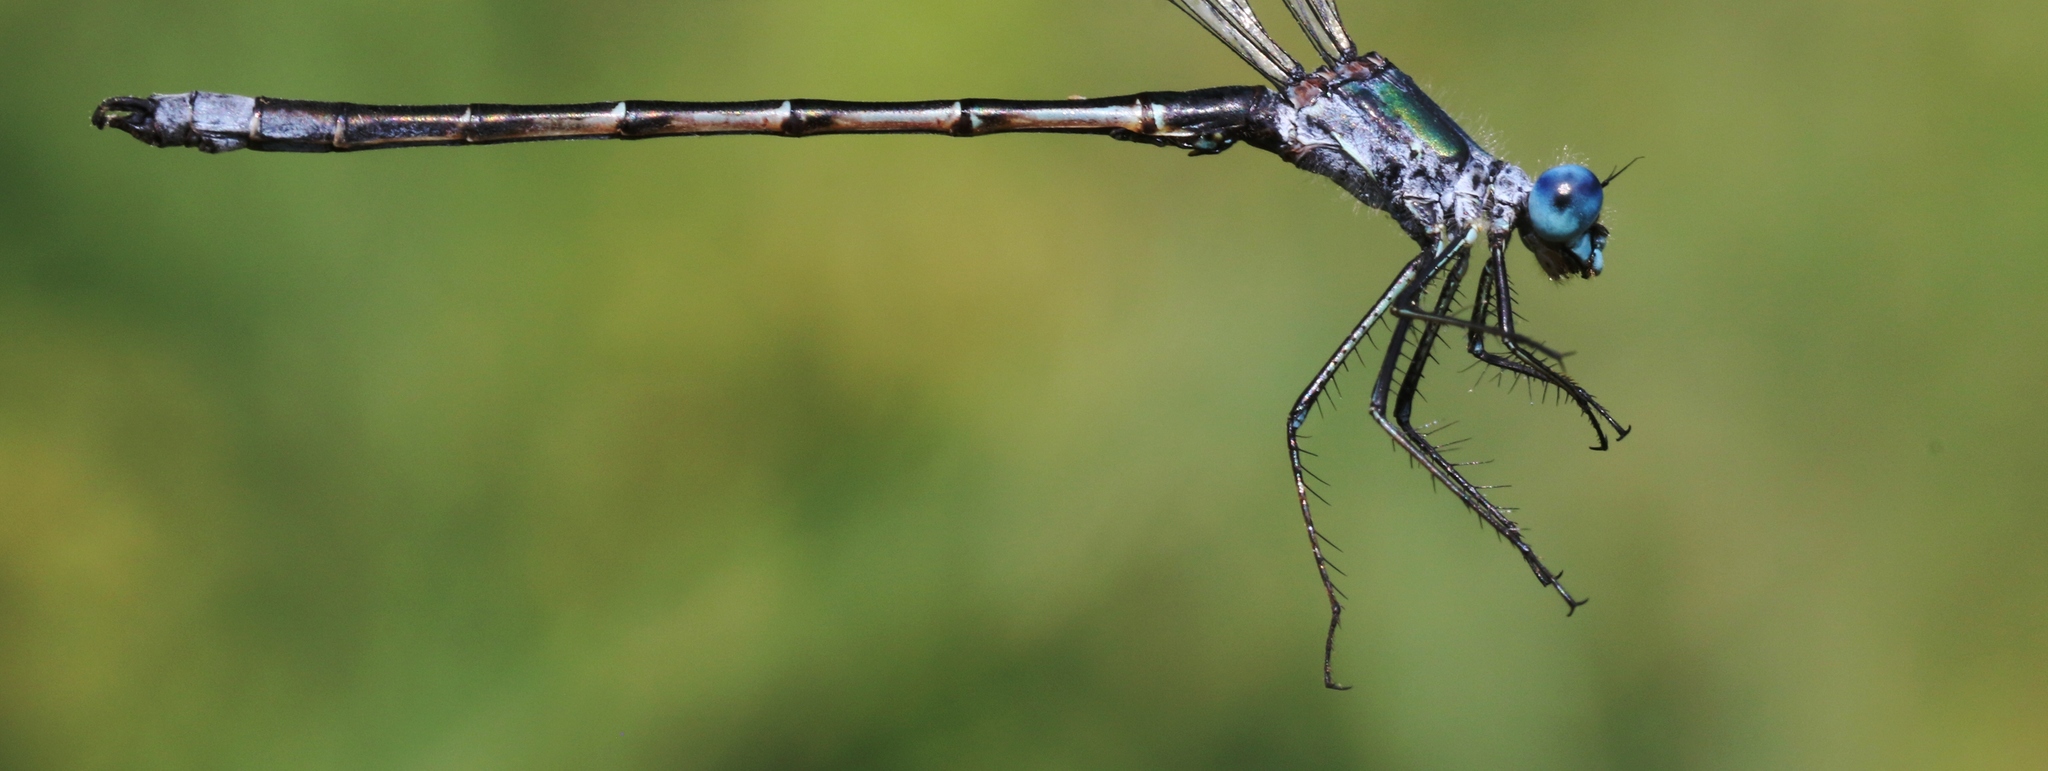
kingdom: Animalia
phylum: Arthropoda
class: Insecta
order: Odonata
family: Lestidae
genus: Lestes
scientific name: Lestes dryas
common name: Scarce emerald damselfly
